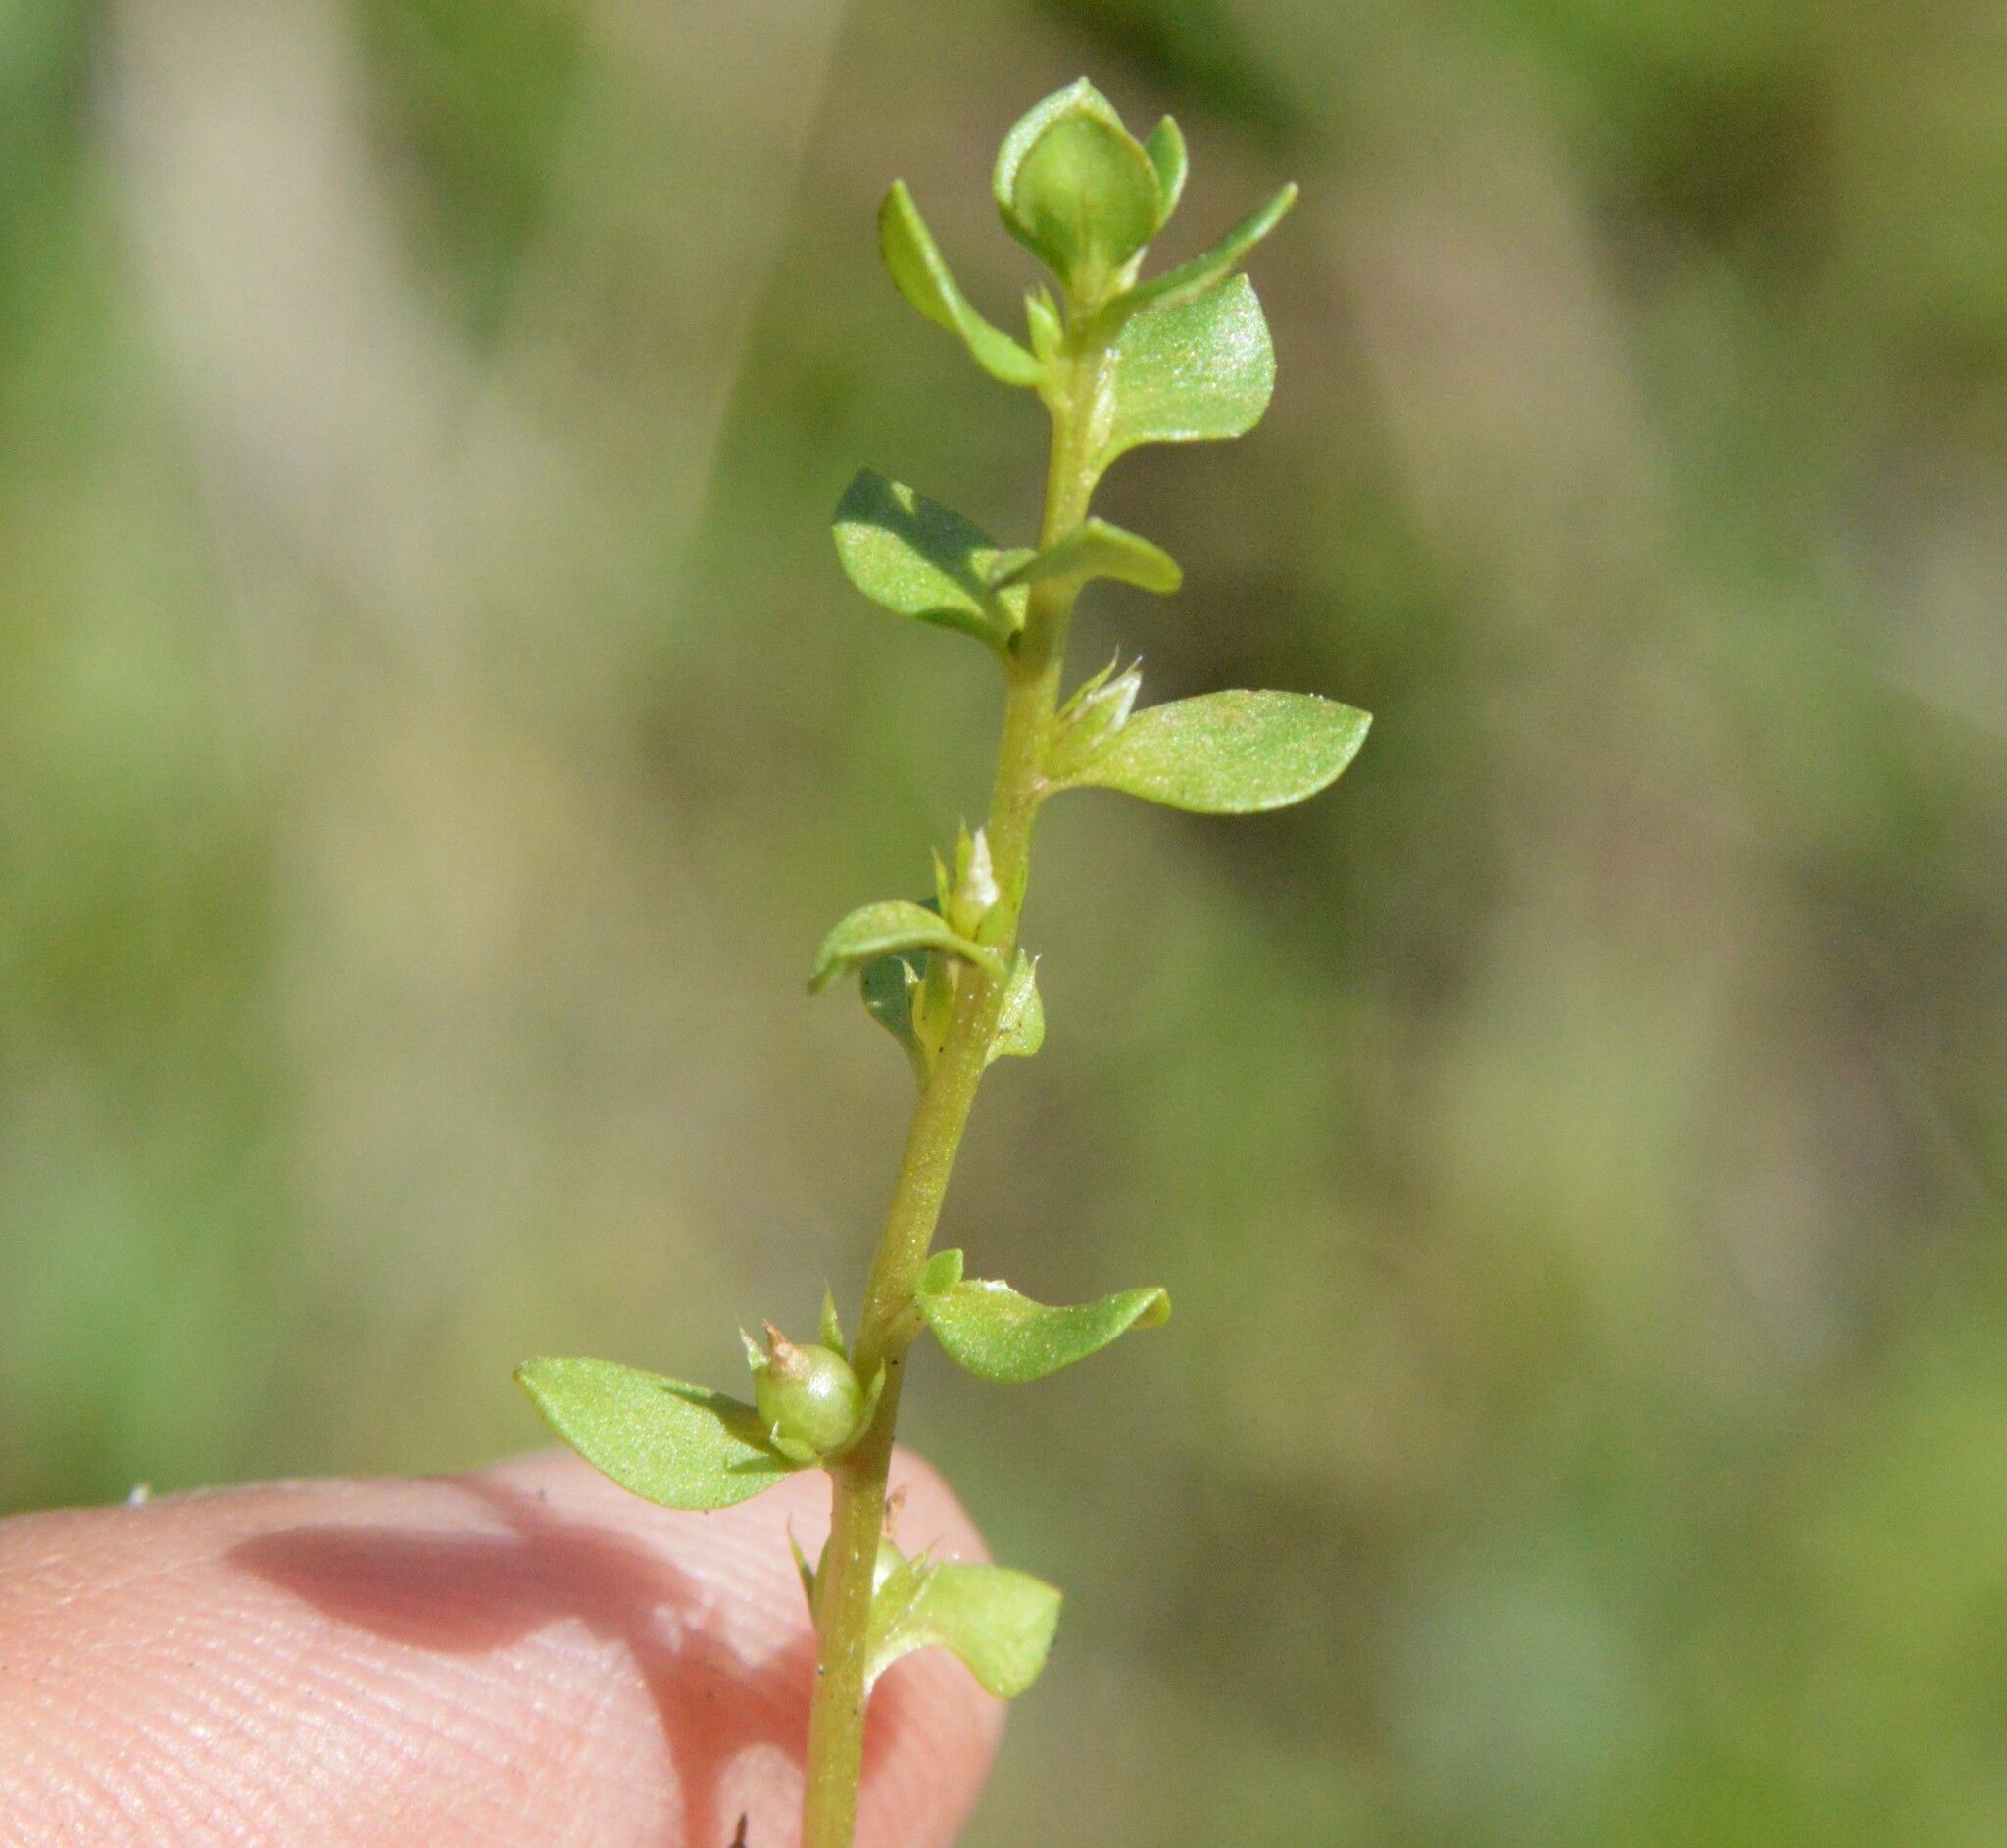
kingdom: Plantae
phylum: Tracheophyta
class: Magnoliopsida
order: Ericales
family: Primulaceae
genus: Lysimachia
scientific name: Lysimachia minima
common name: Chaffweed
